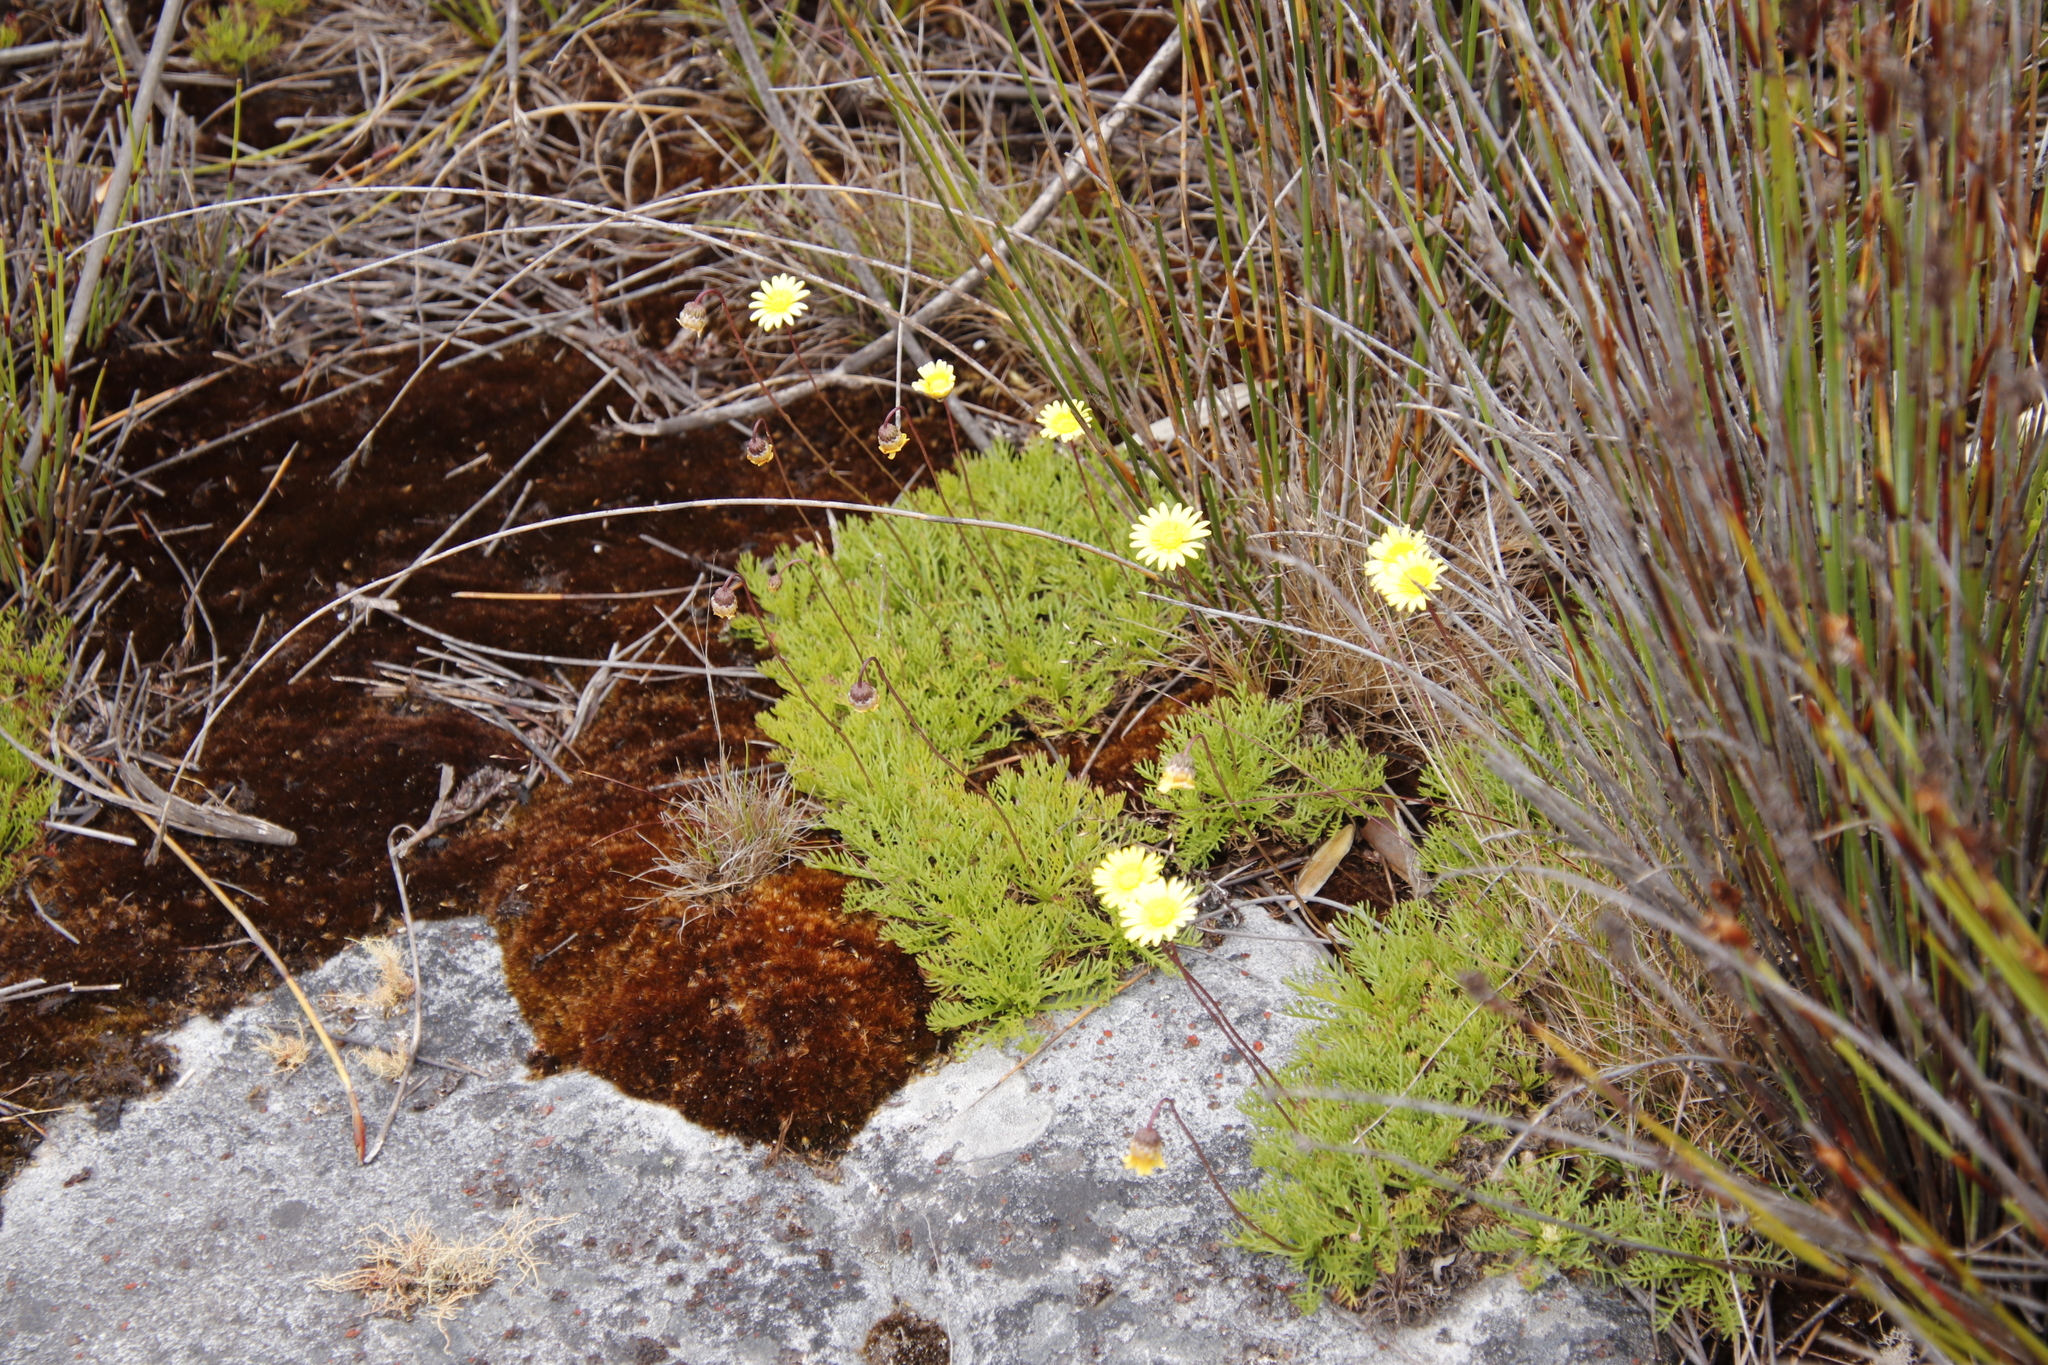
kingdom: Plantae
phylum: Tracheophyta
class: Magnoliopsida
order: Asterales
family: Asteraceae
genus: Ursinia
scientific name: Ursinia nudicaulis
